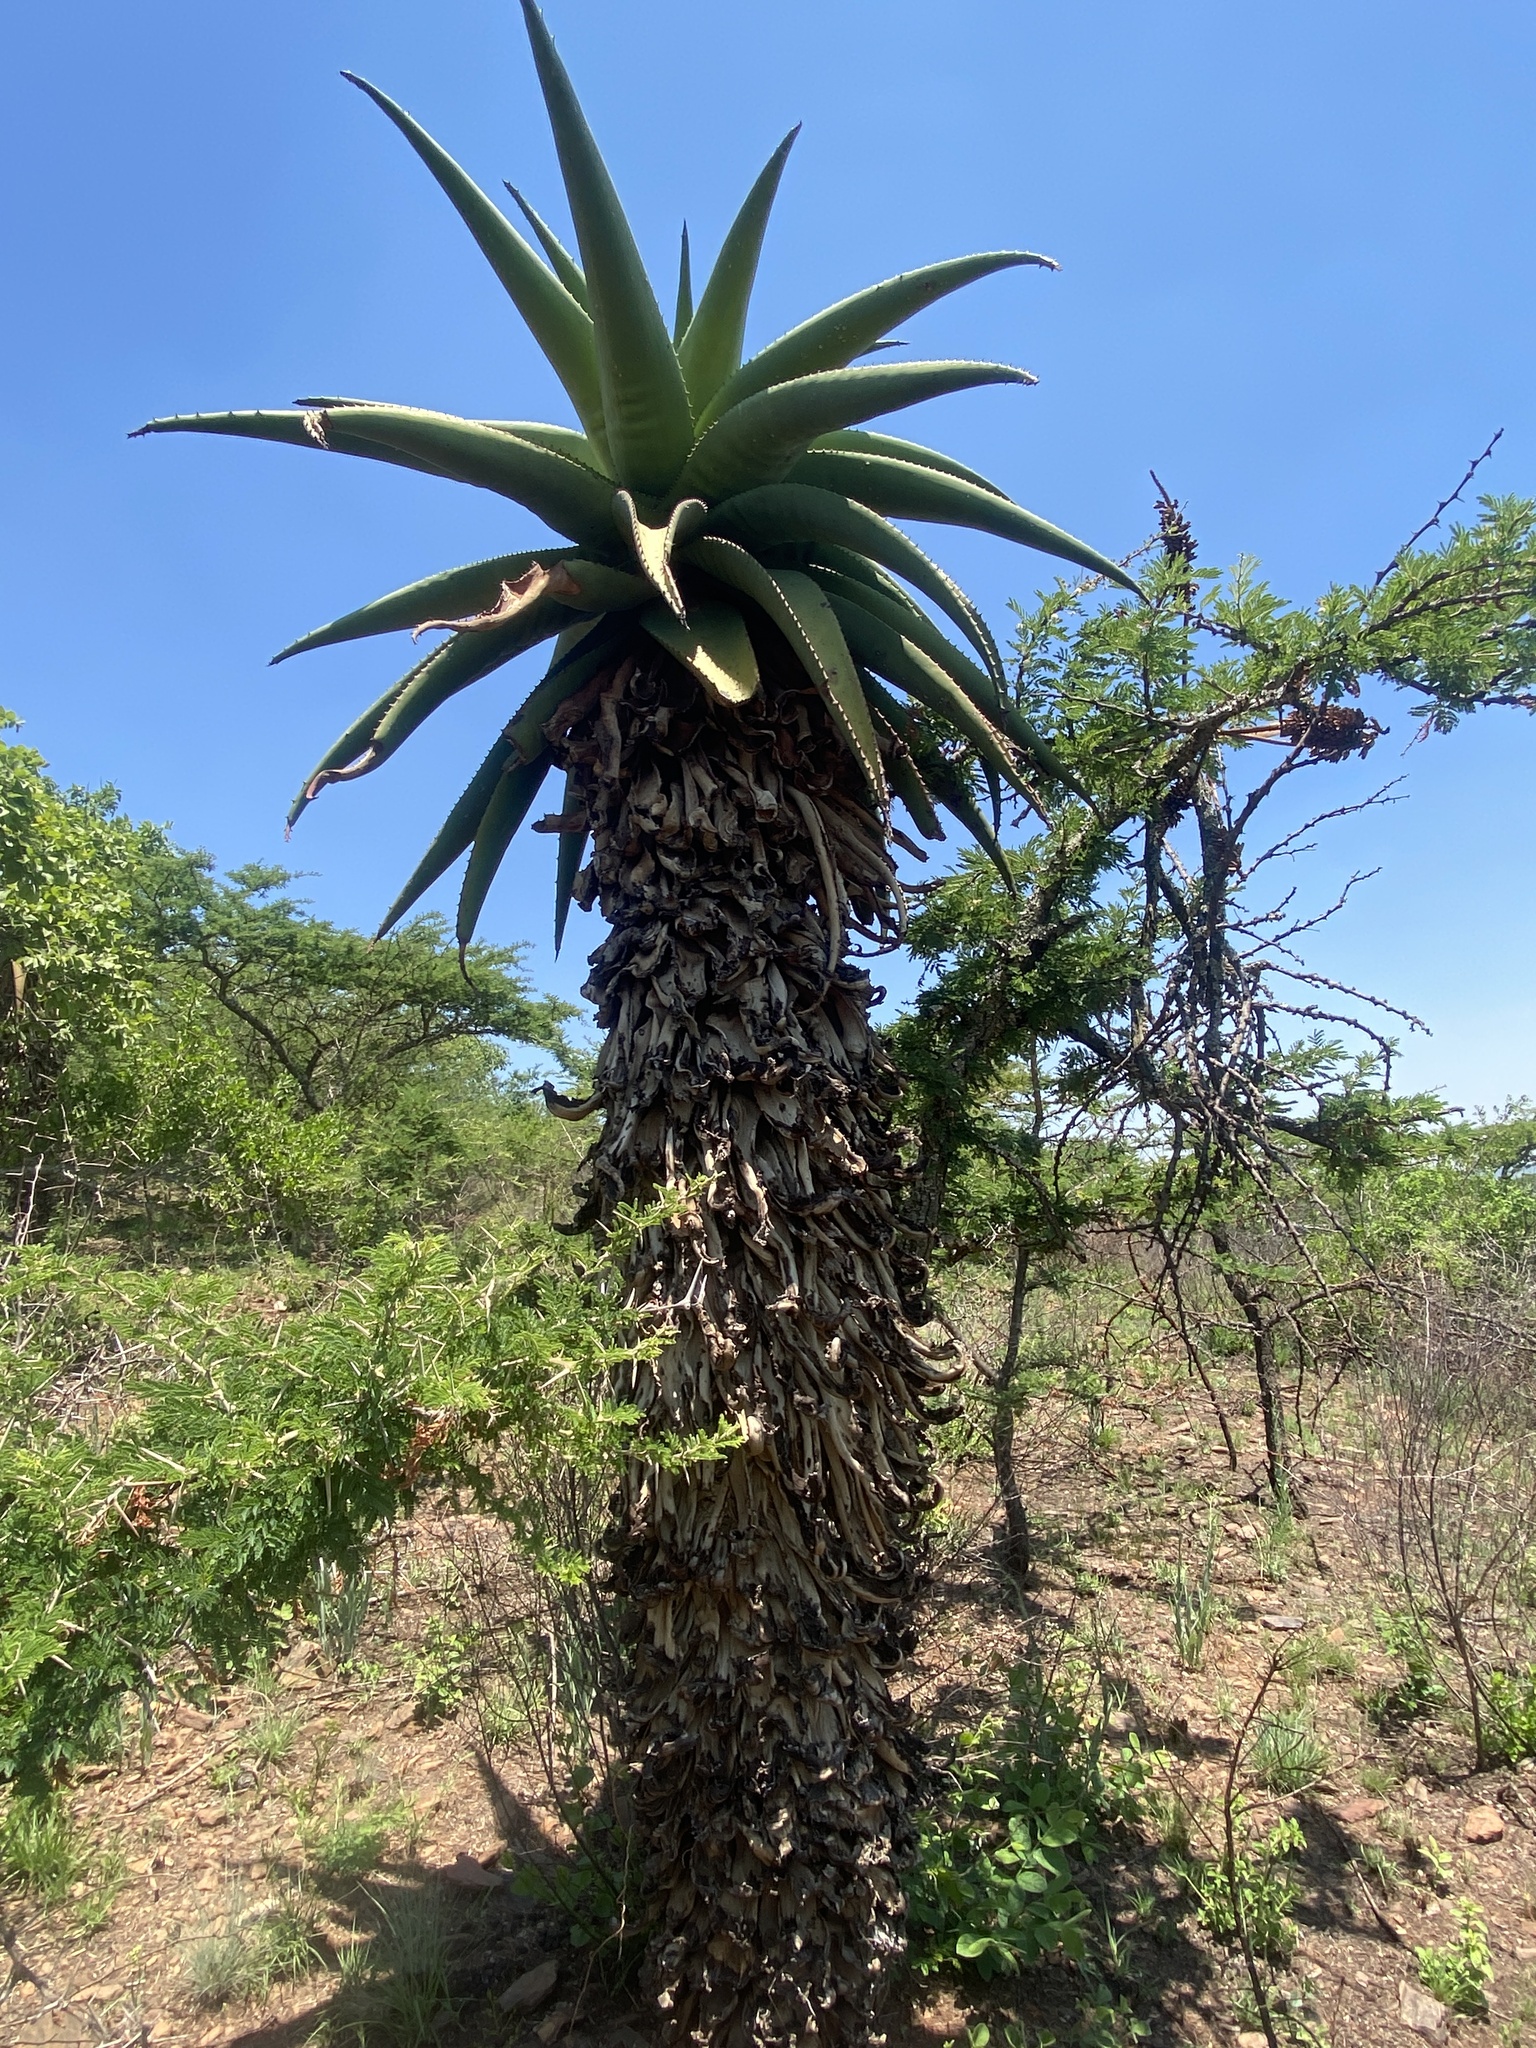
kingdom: Plantae
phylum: Tracheophyta
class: Liliopsida
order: Asparagales
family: Asphodelaceae
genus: Aloe
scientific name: Aloe marlothii
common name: Flat-flowered aloe
